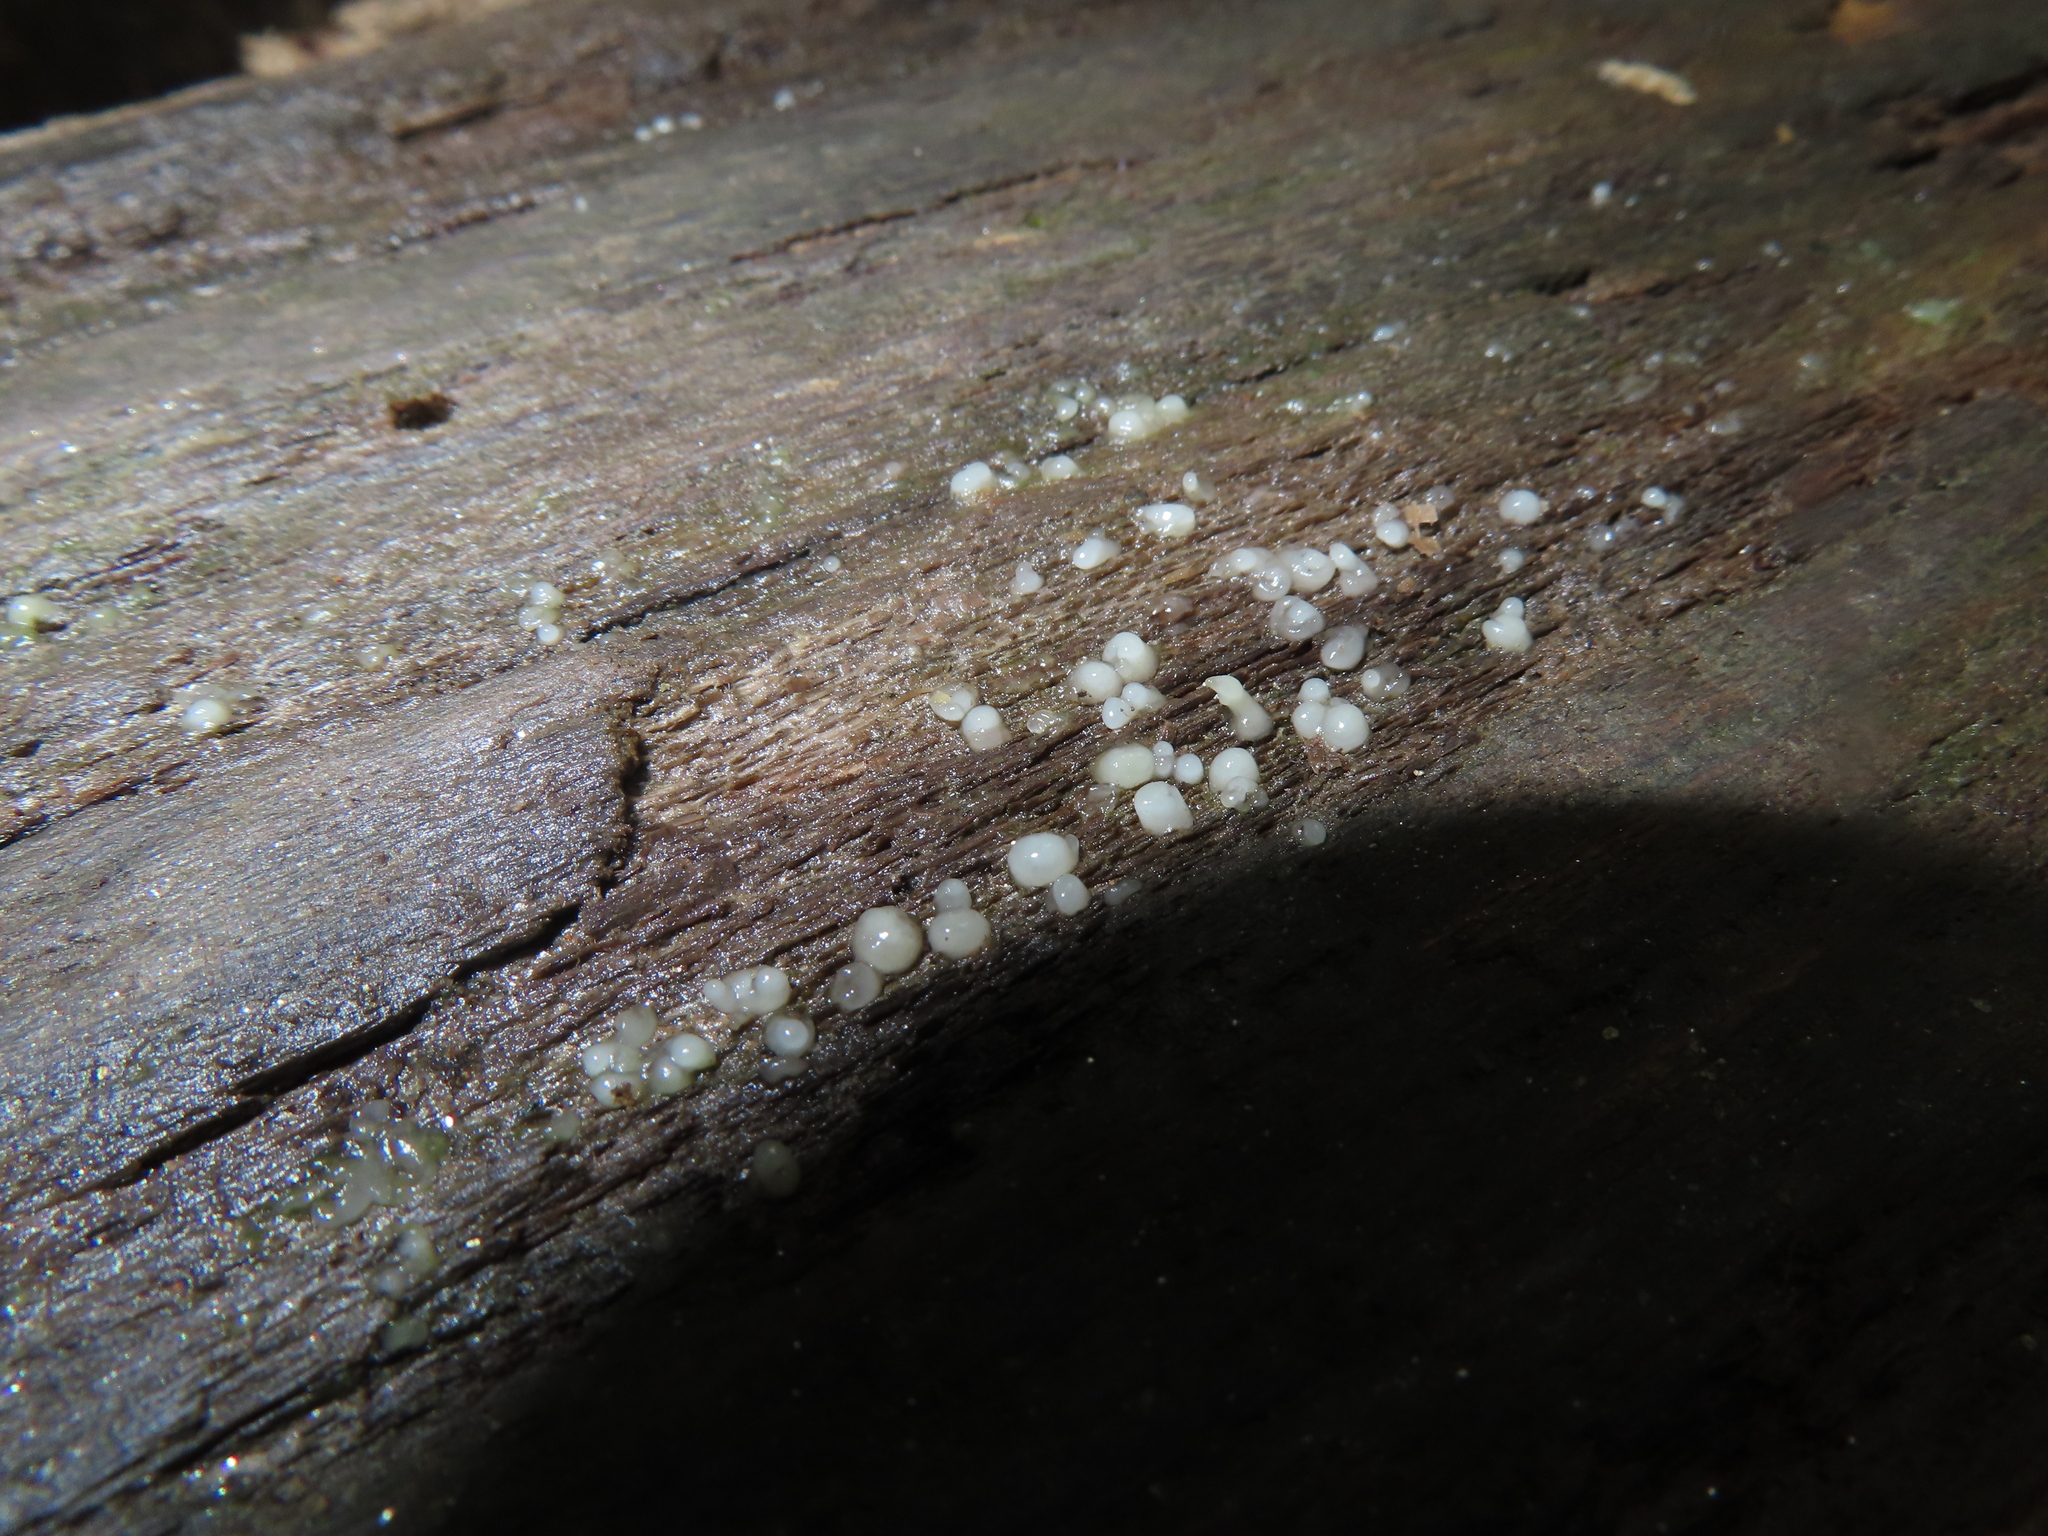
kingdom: Fungi
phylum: Basidiomycota
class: Atractiellomycetes
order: Atractiellales
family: Phleogenaceae
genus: Helicogloea
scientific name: Helicogloea compressa
